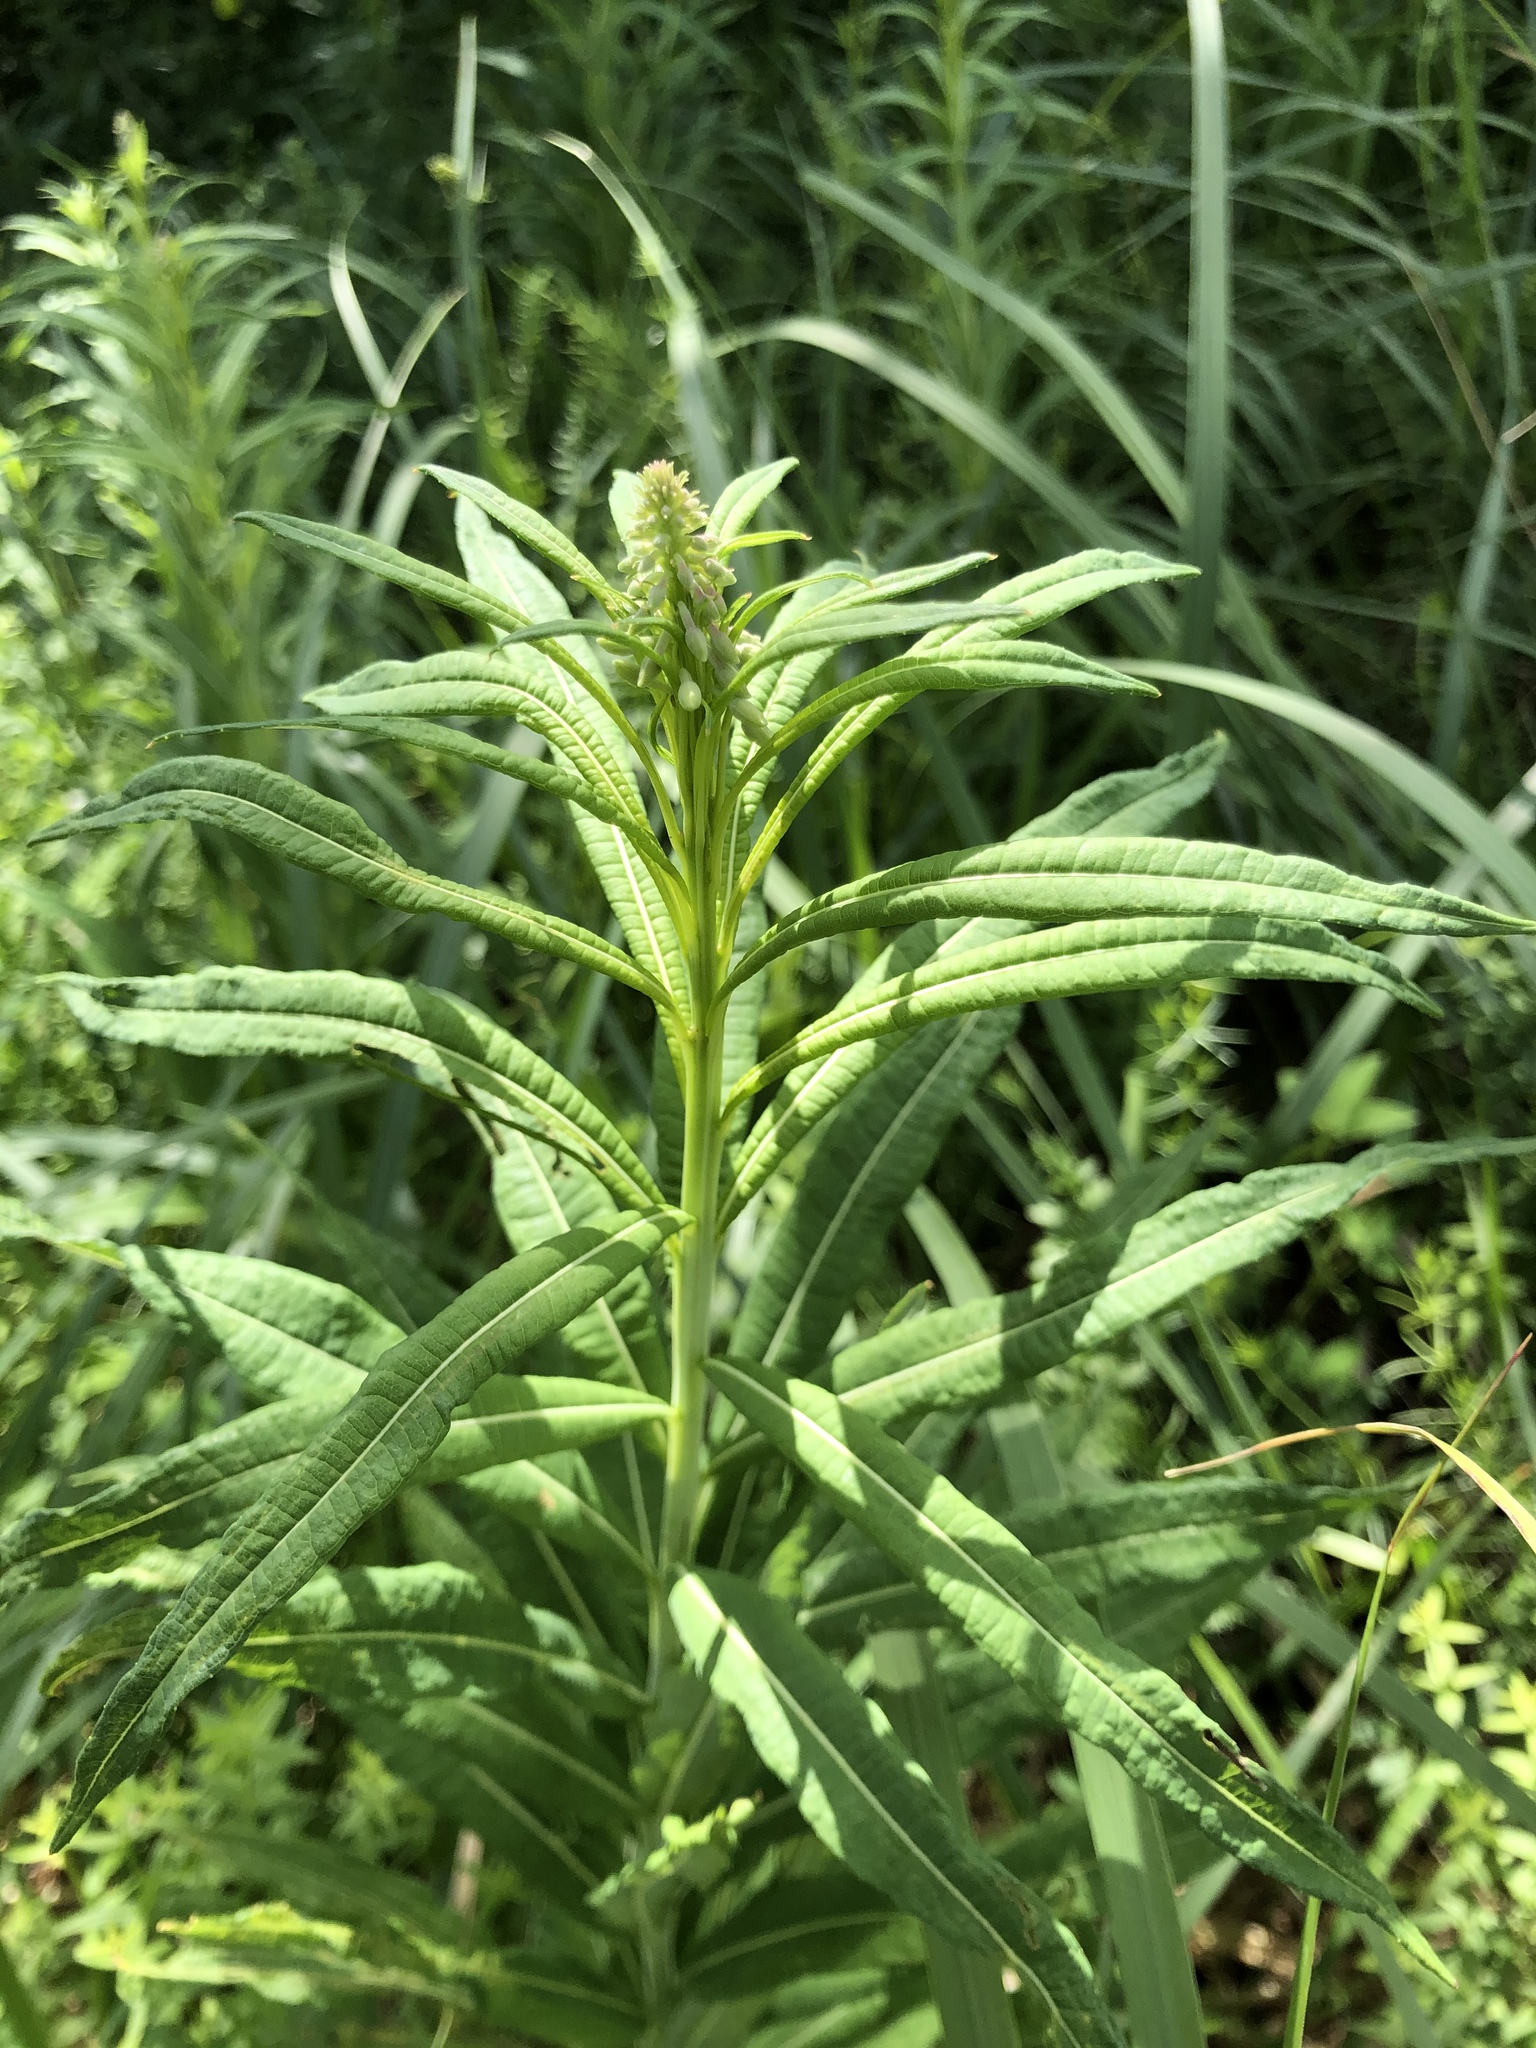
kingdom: Plantae
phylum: Tracheophyta
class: Magnoliopsida
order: Myrtales
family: Onagraceae
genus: Chamaenerion
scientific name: Chamaenerion angustifolium
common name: Fireweed
